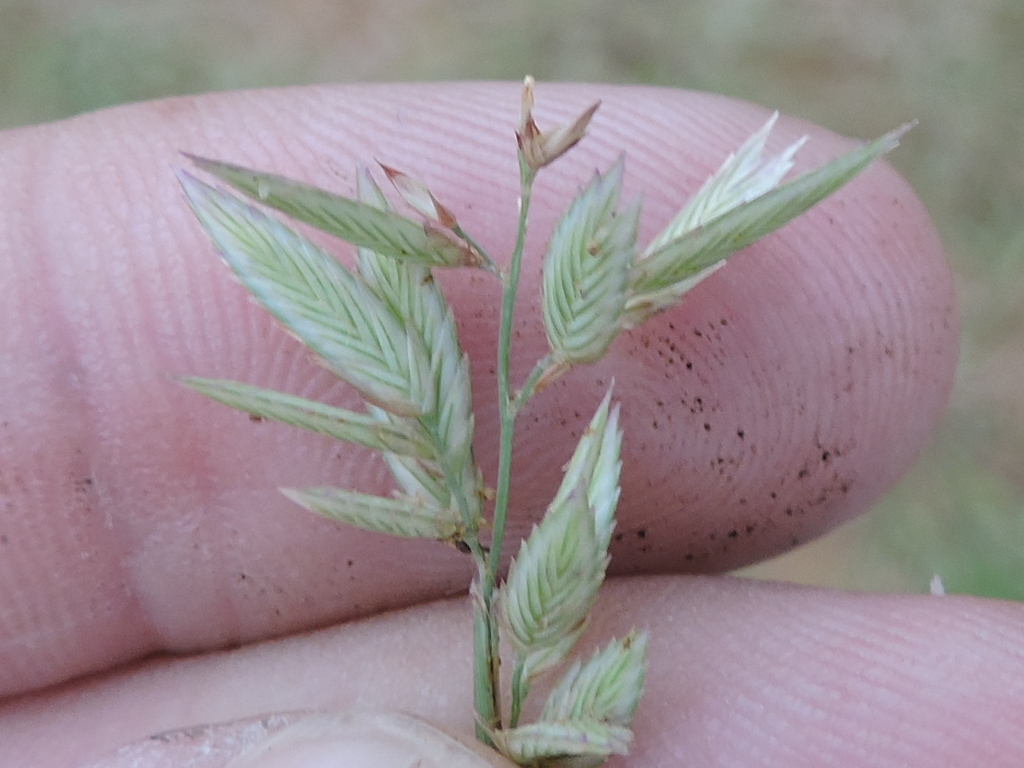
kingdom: Plantae
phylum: Tracheophyta
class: Liliopsida
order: Poales
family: Poaceae
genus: Eragrostis
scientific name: Eragrostis secundiflora
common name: Red love grass
